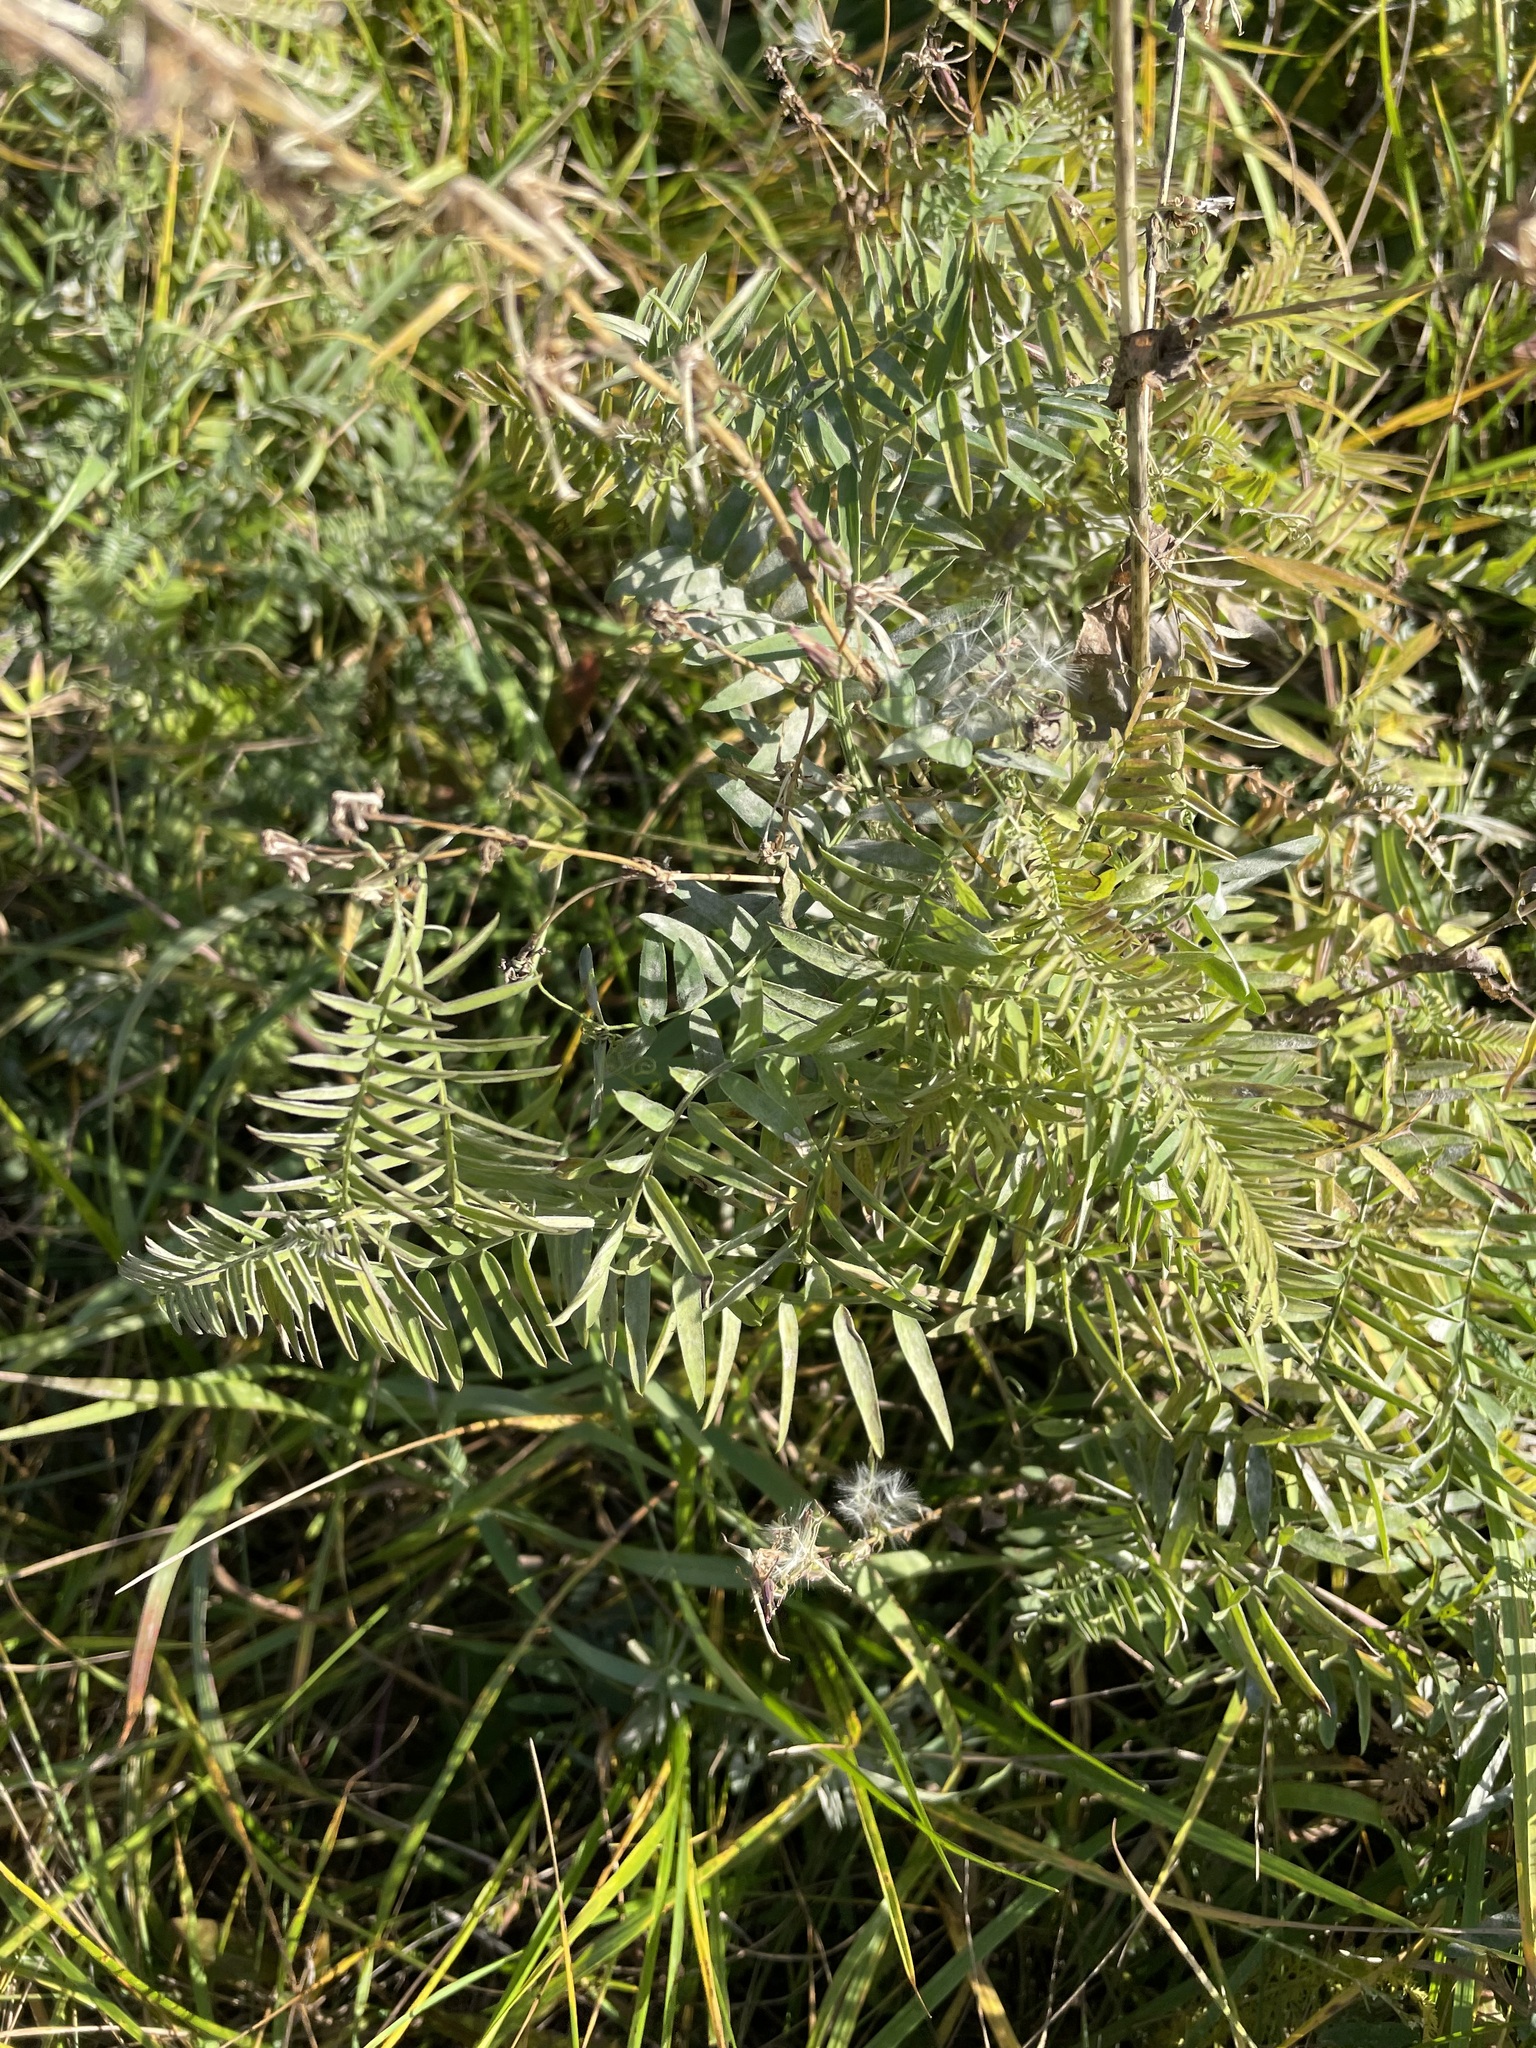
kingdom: Plantae
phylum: Tracheophyta
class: Magnoliopsida
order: Fabales
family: Fabaceae
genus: Vicia
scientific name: Vicia cracca
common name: Bird vetch
